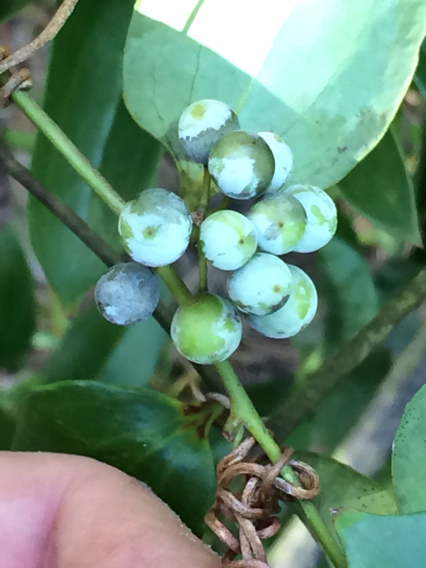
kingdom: Plantae
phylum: Tracheophyta
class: Liliopsida
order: Liliales
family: Smilacaceae
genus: Smilax
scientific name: Smilax glauca
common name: Cat greenbrier
